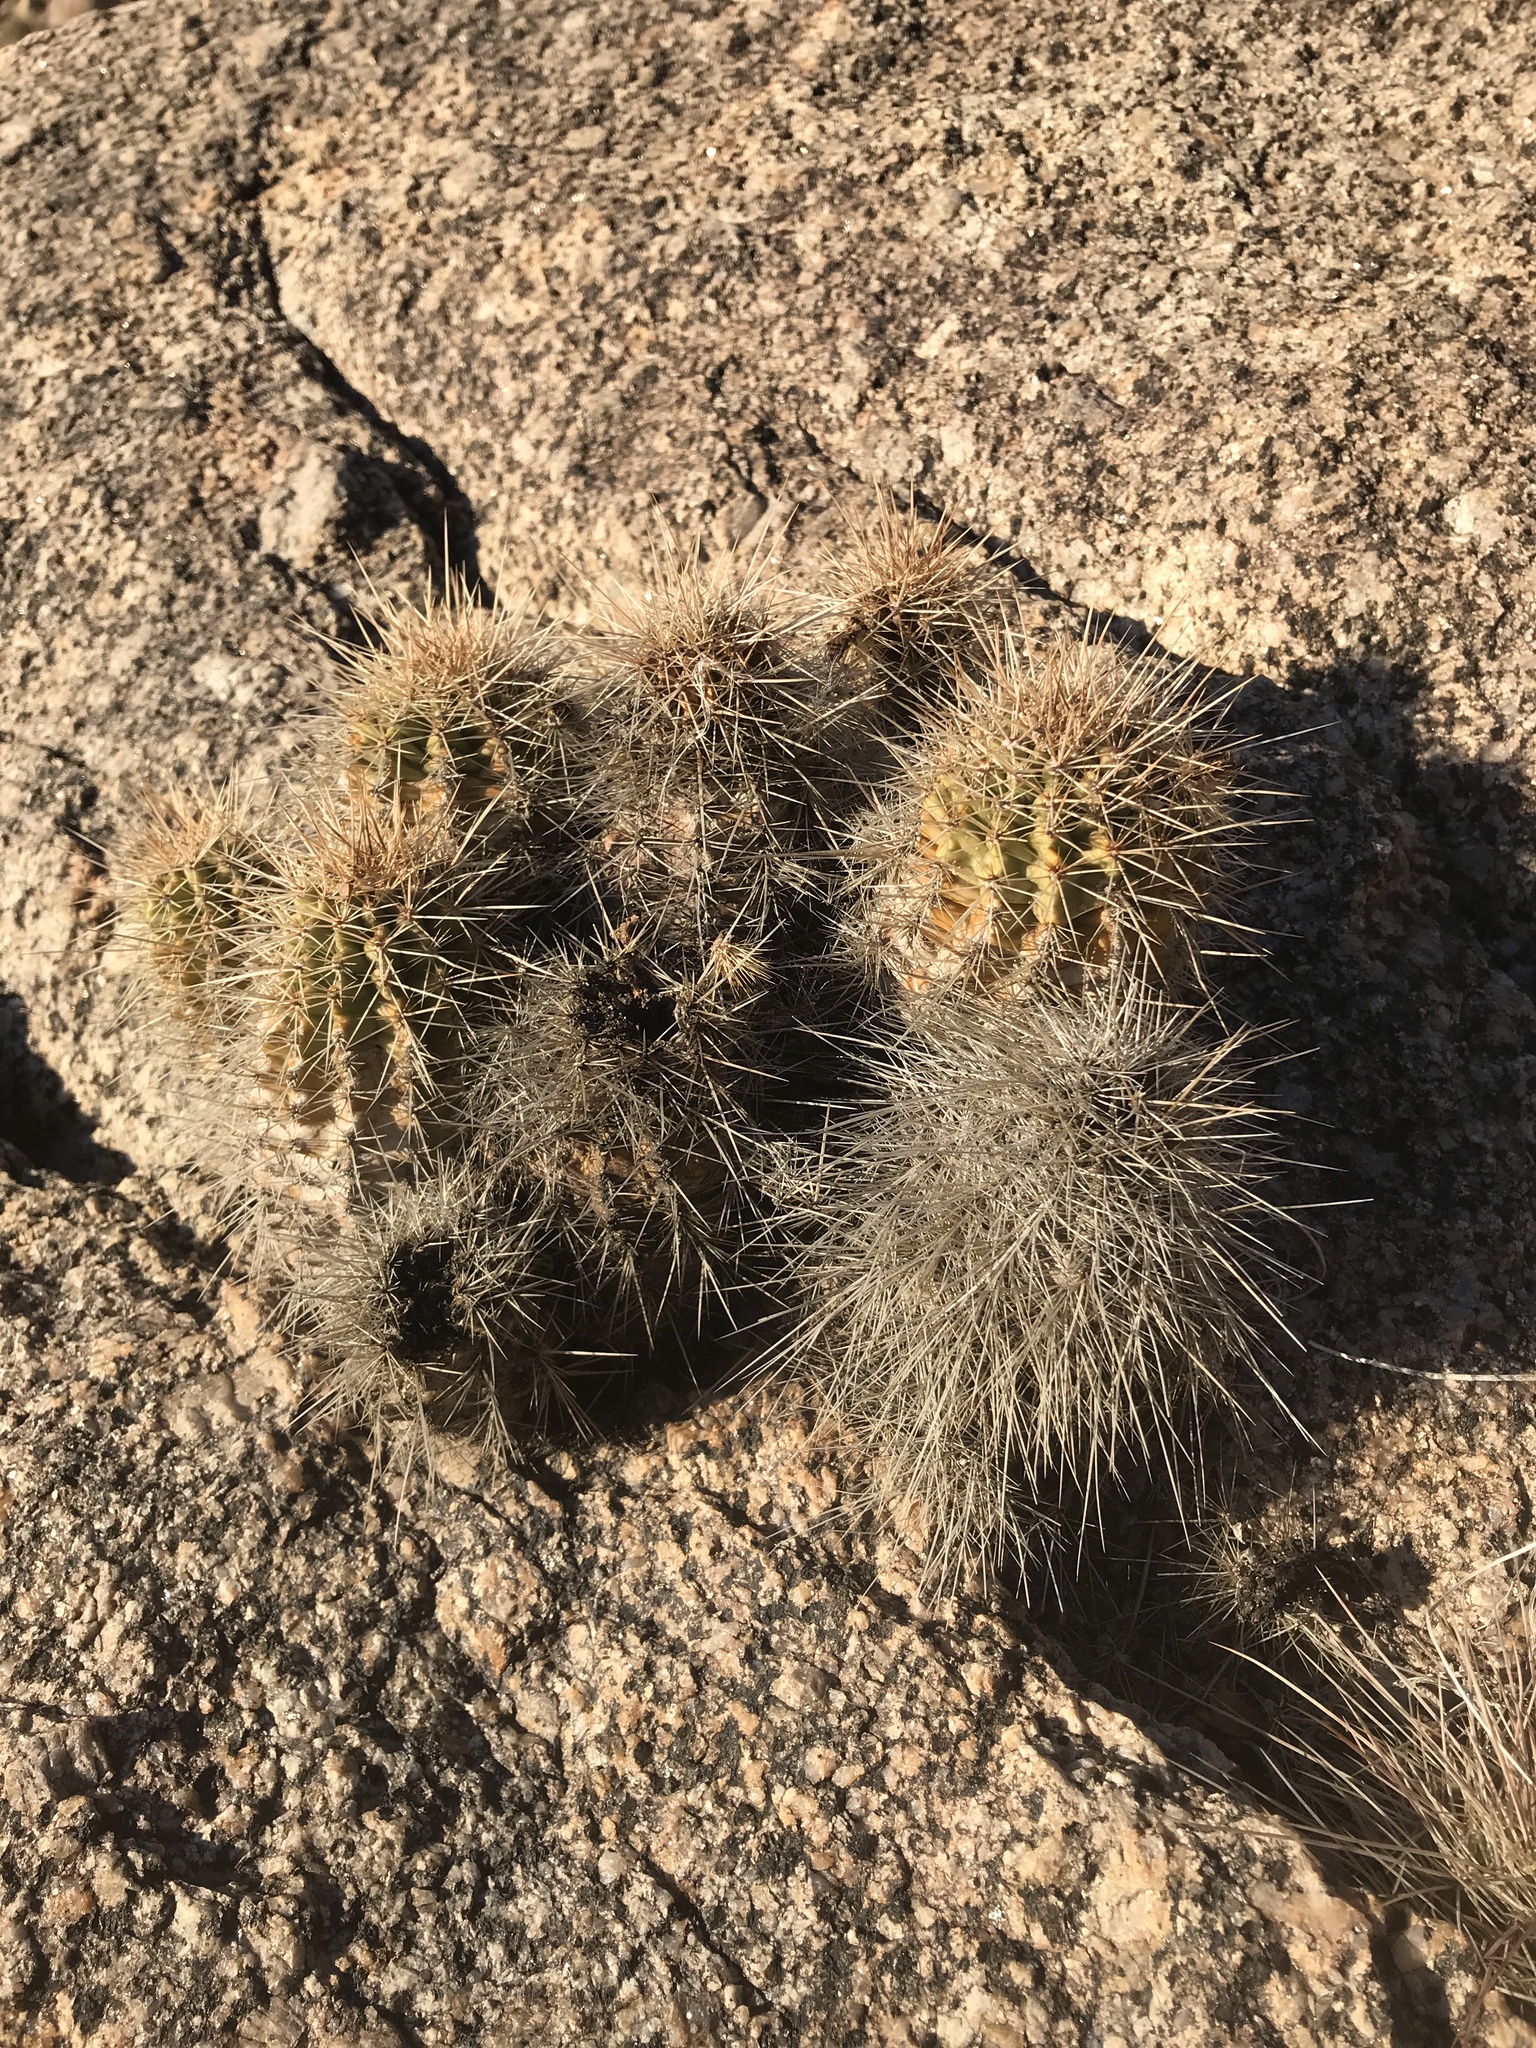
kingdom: Plantae
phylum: Tracheophyta
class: Magnoliopsida
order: Caryophyllales
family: Cactaceae
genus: Echinocereus
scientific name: Echinocereus coccineus
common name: Scarlet hedgehog cactus
